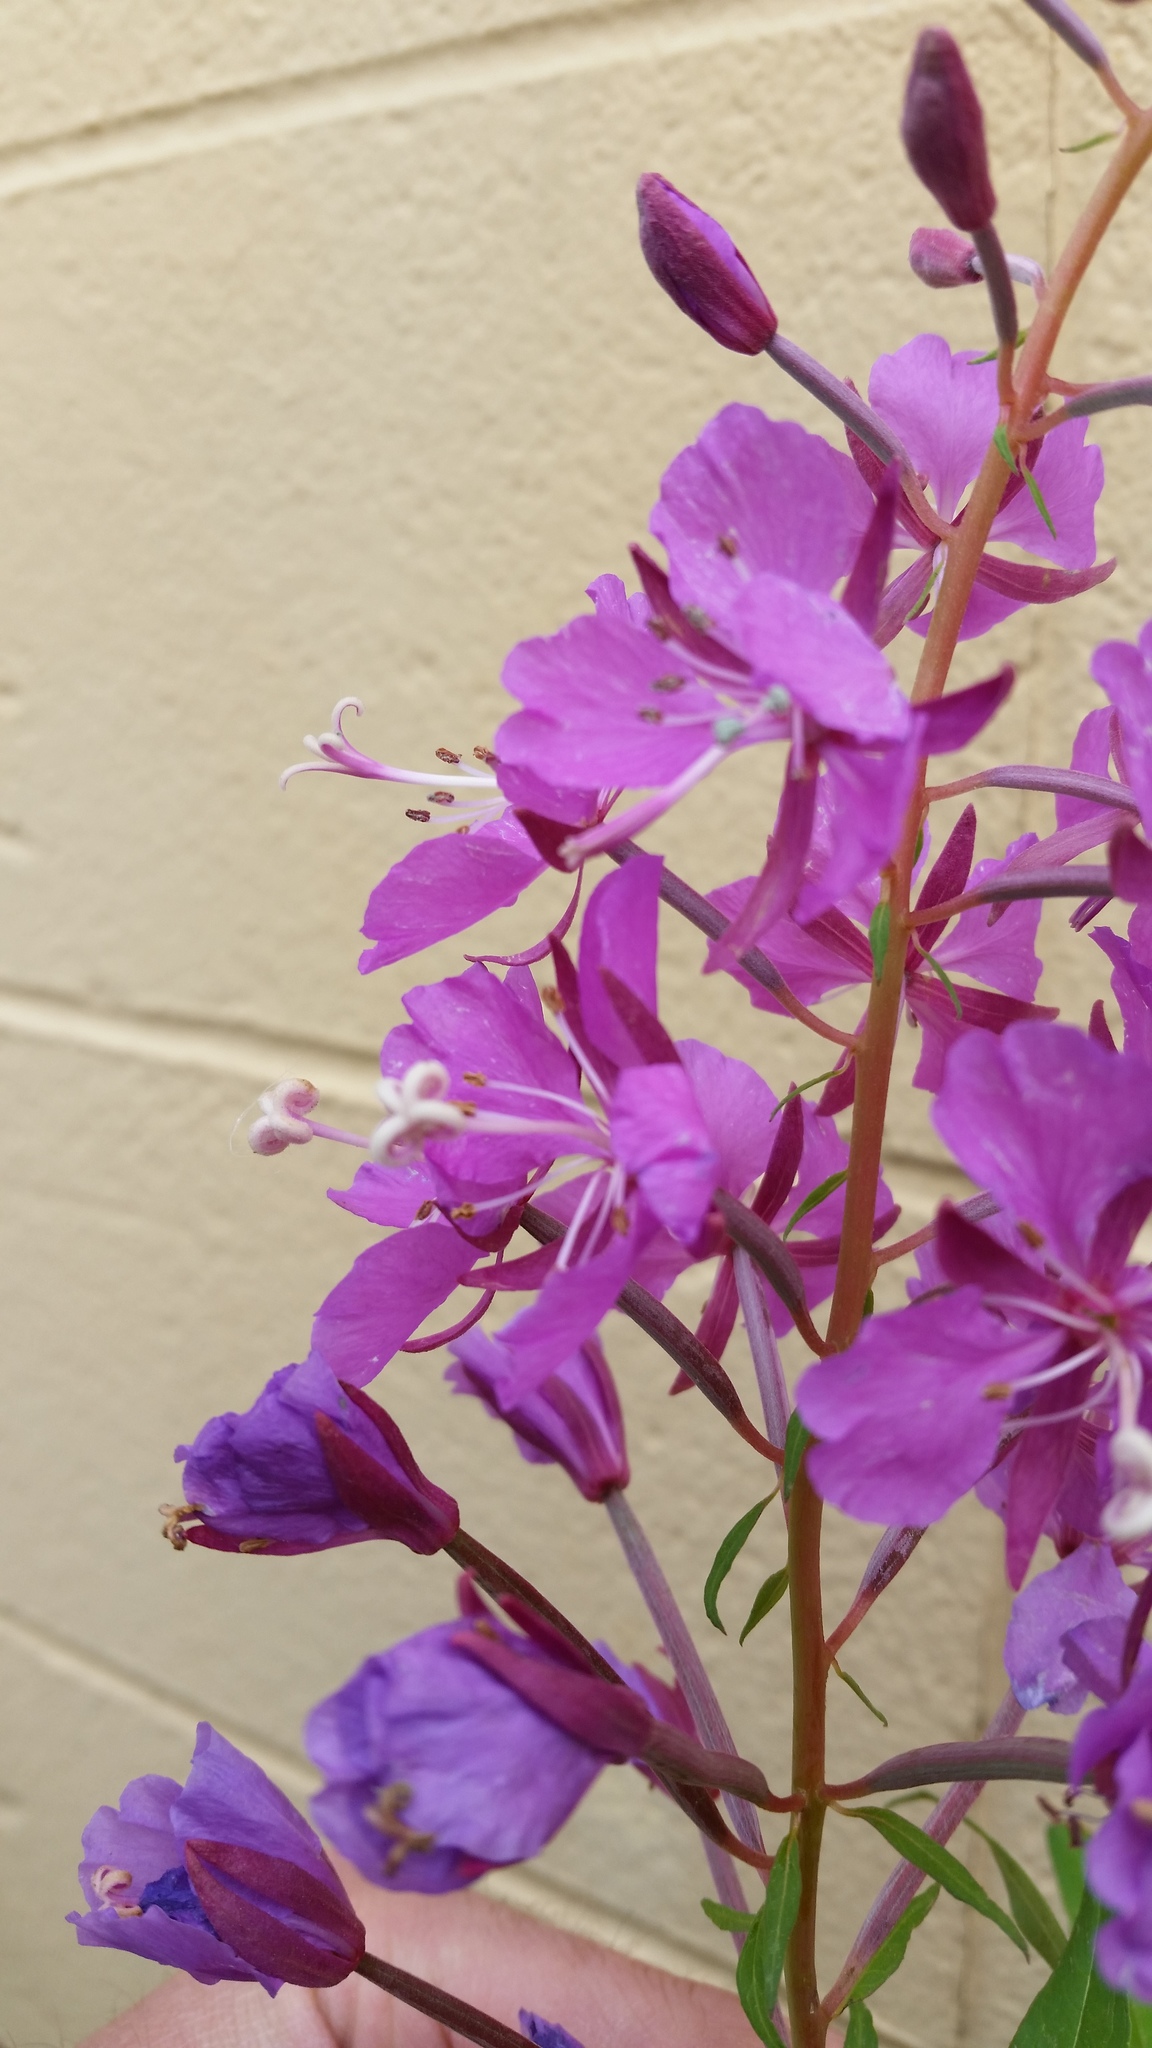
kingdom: Plantae
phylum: Tracheophyta
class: Magnoliopsida
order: Myrtales
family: Onagraceae
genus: Chamaenerion
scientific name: Chamaenerion angustifolium
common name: Fireweed
